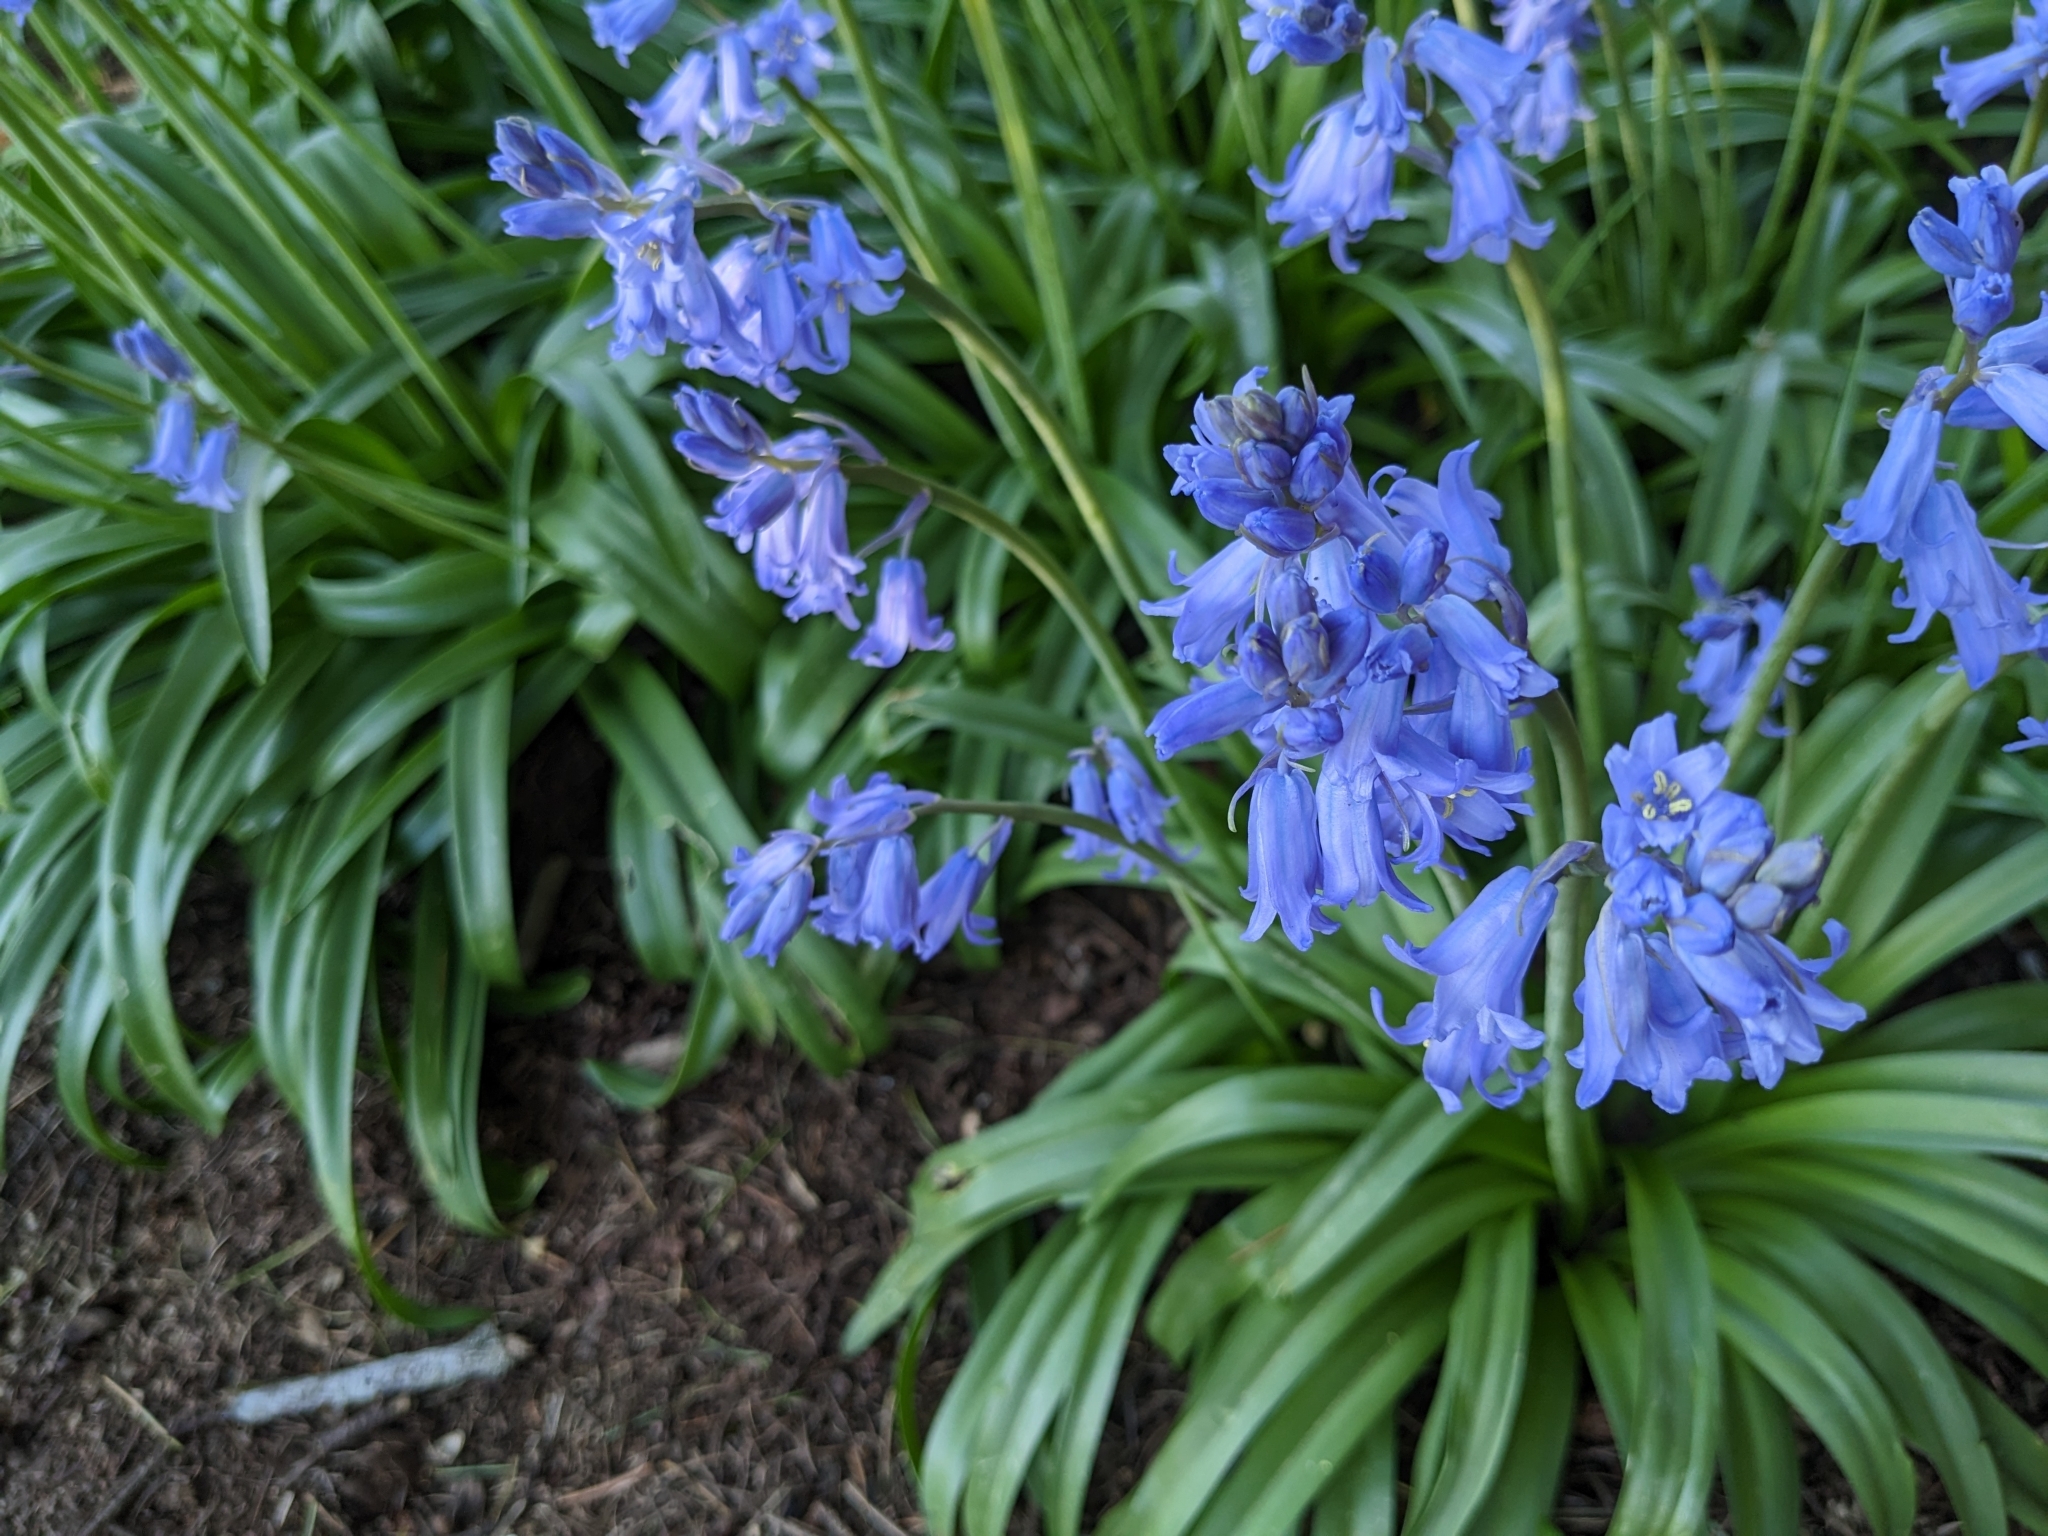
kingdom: Plantae
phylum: Tracheophyta
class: Liliopsida
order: Asparagales
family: Asparagaceae
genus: Hyacinthoides
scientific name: Hyacinthoides hispanica
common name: Spanish bluebell
